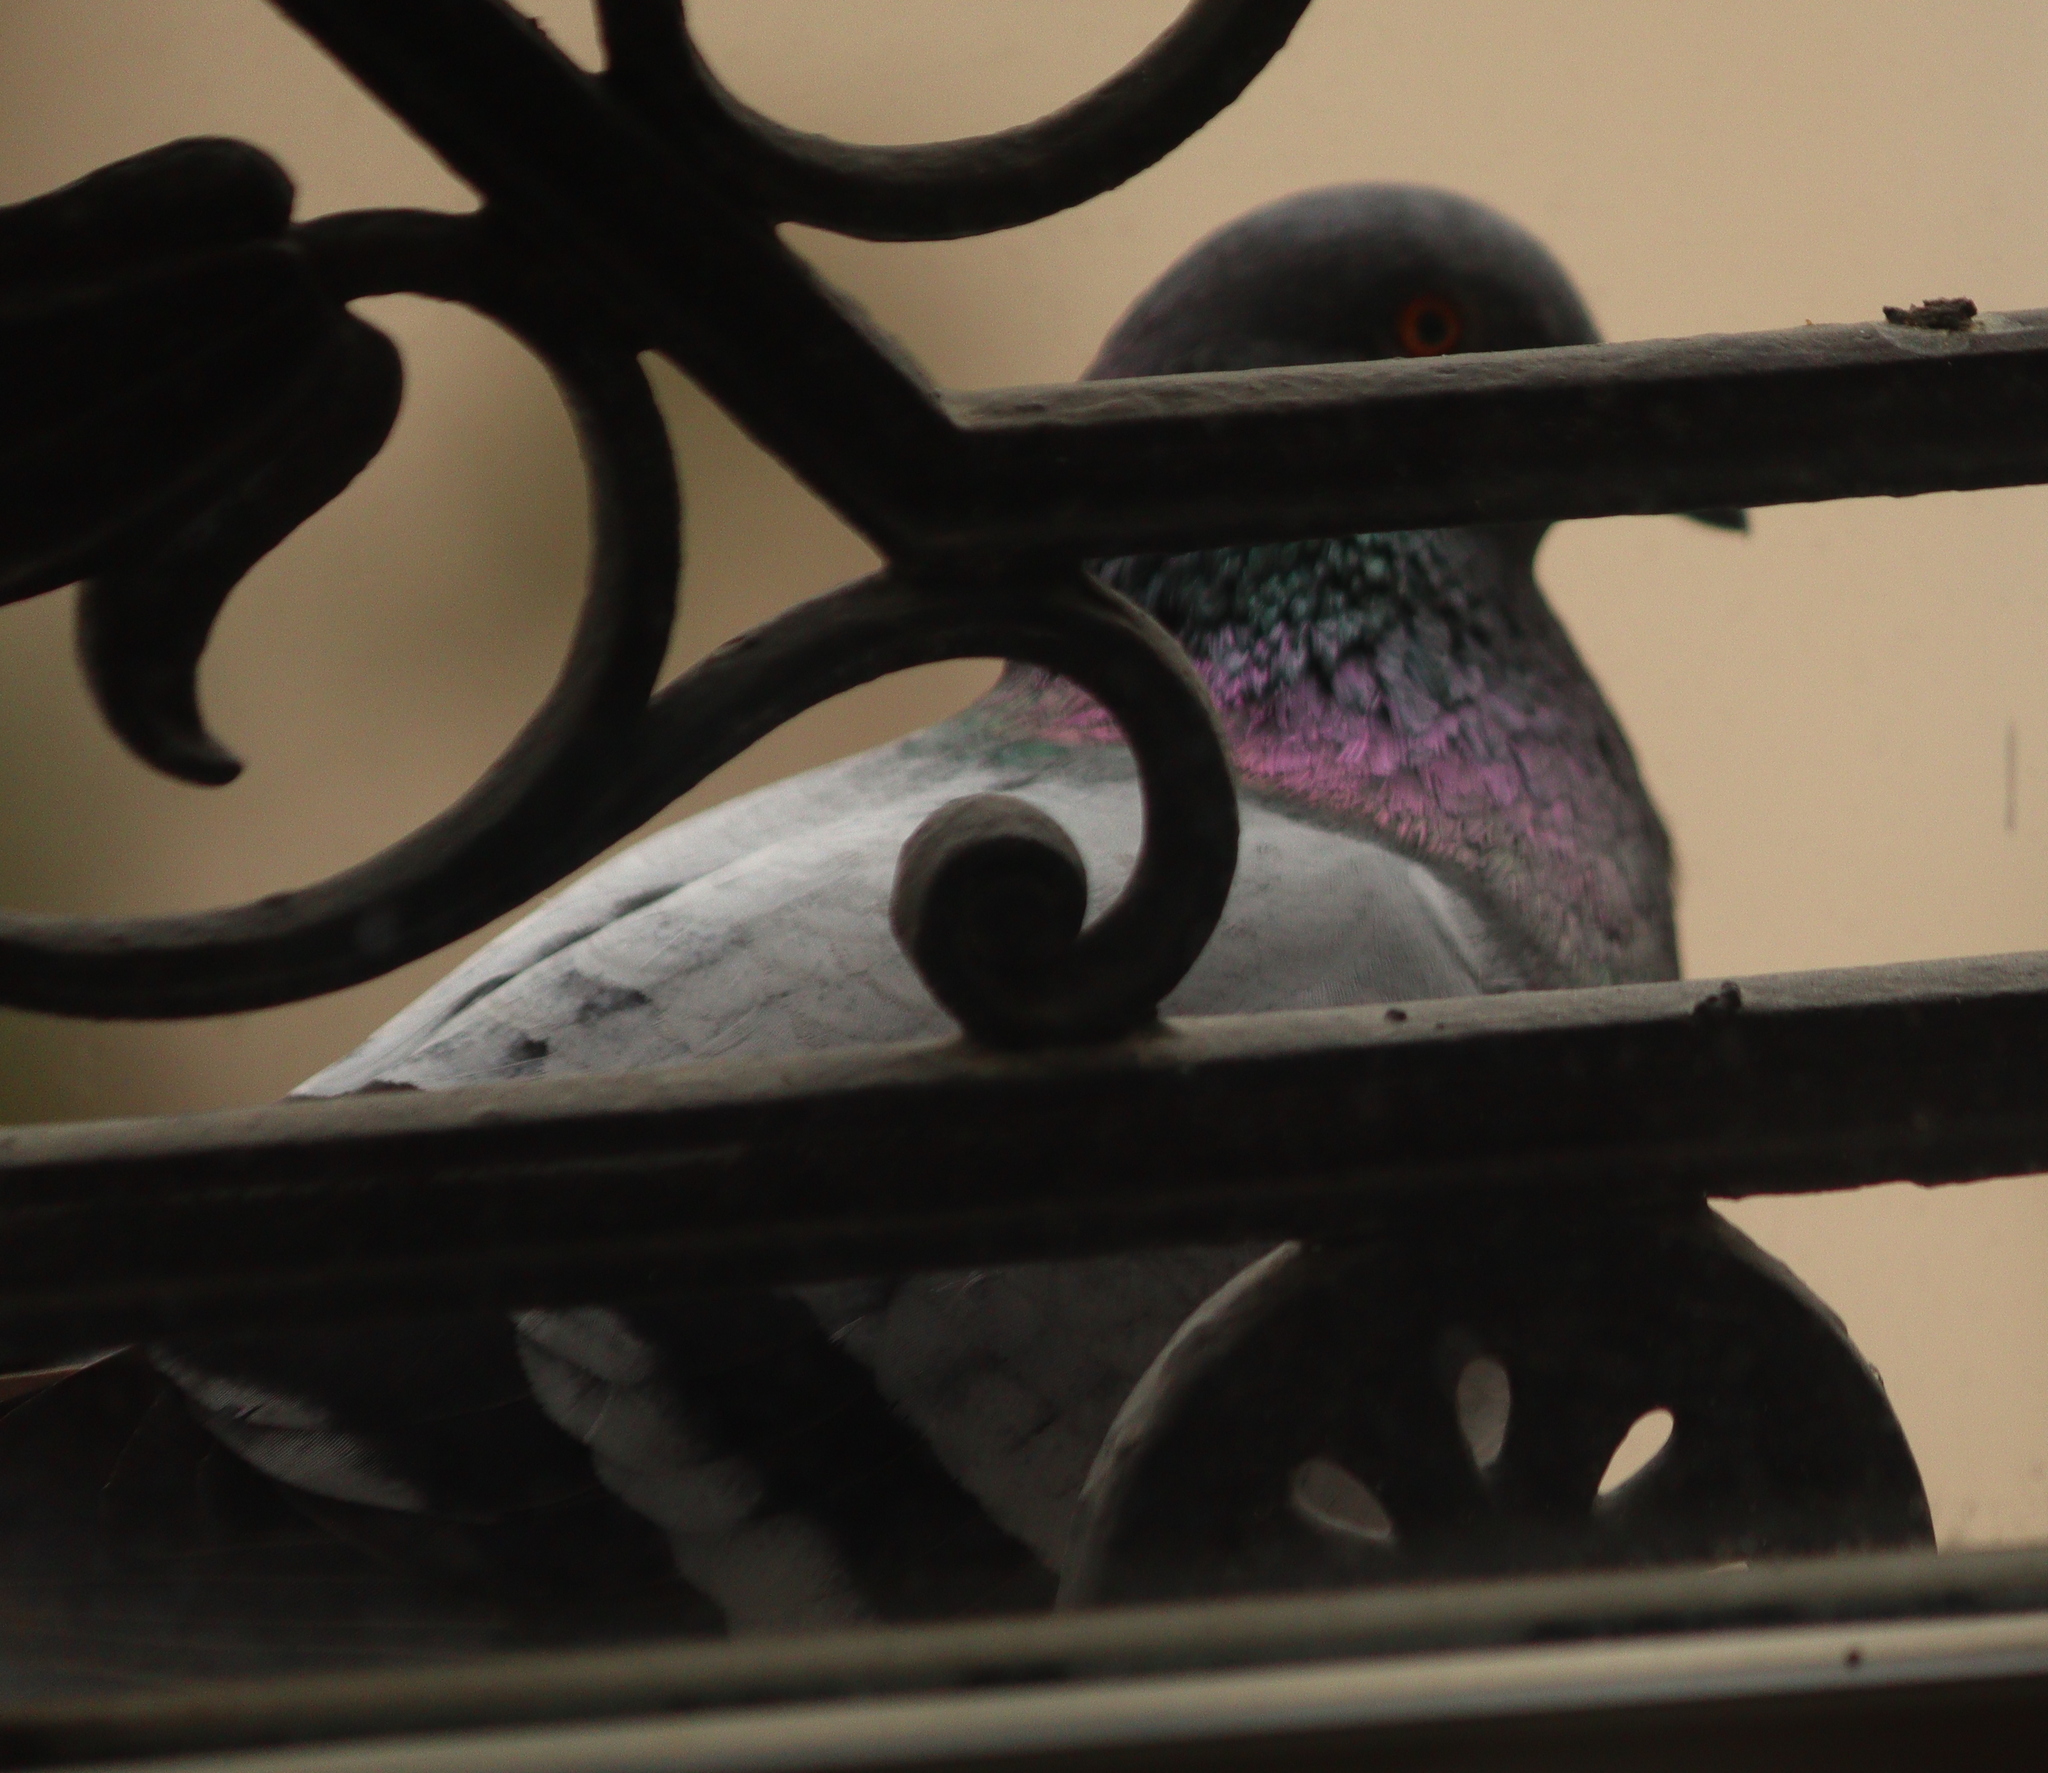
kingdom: Animalia
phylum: Chordata
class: Aves
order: Columbiformes
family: Columbidae
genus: Columba
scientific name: Columba livia
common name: Rock pigeon
